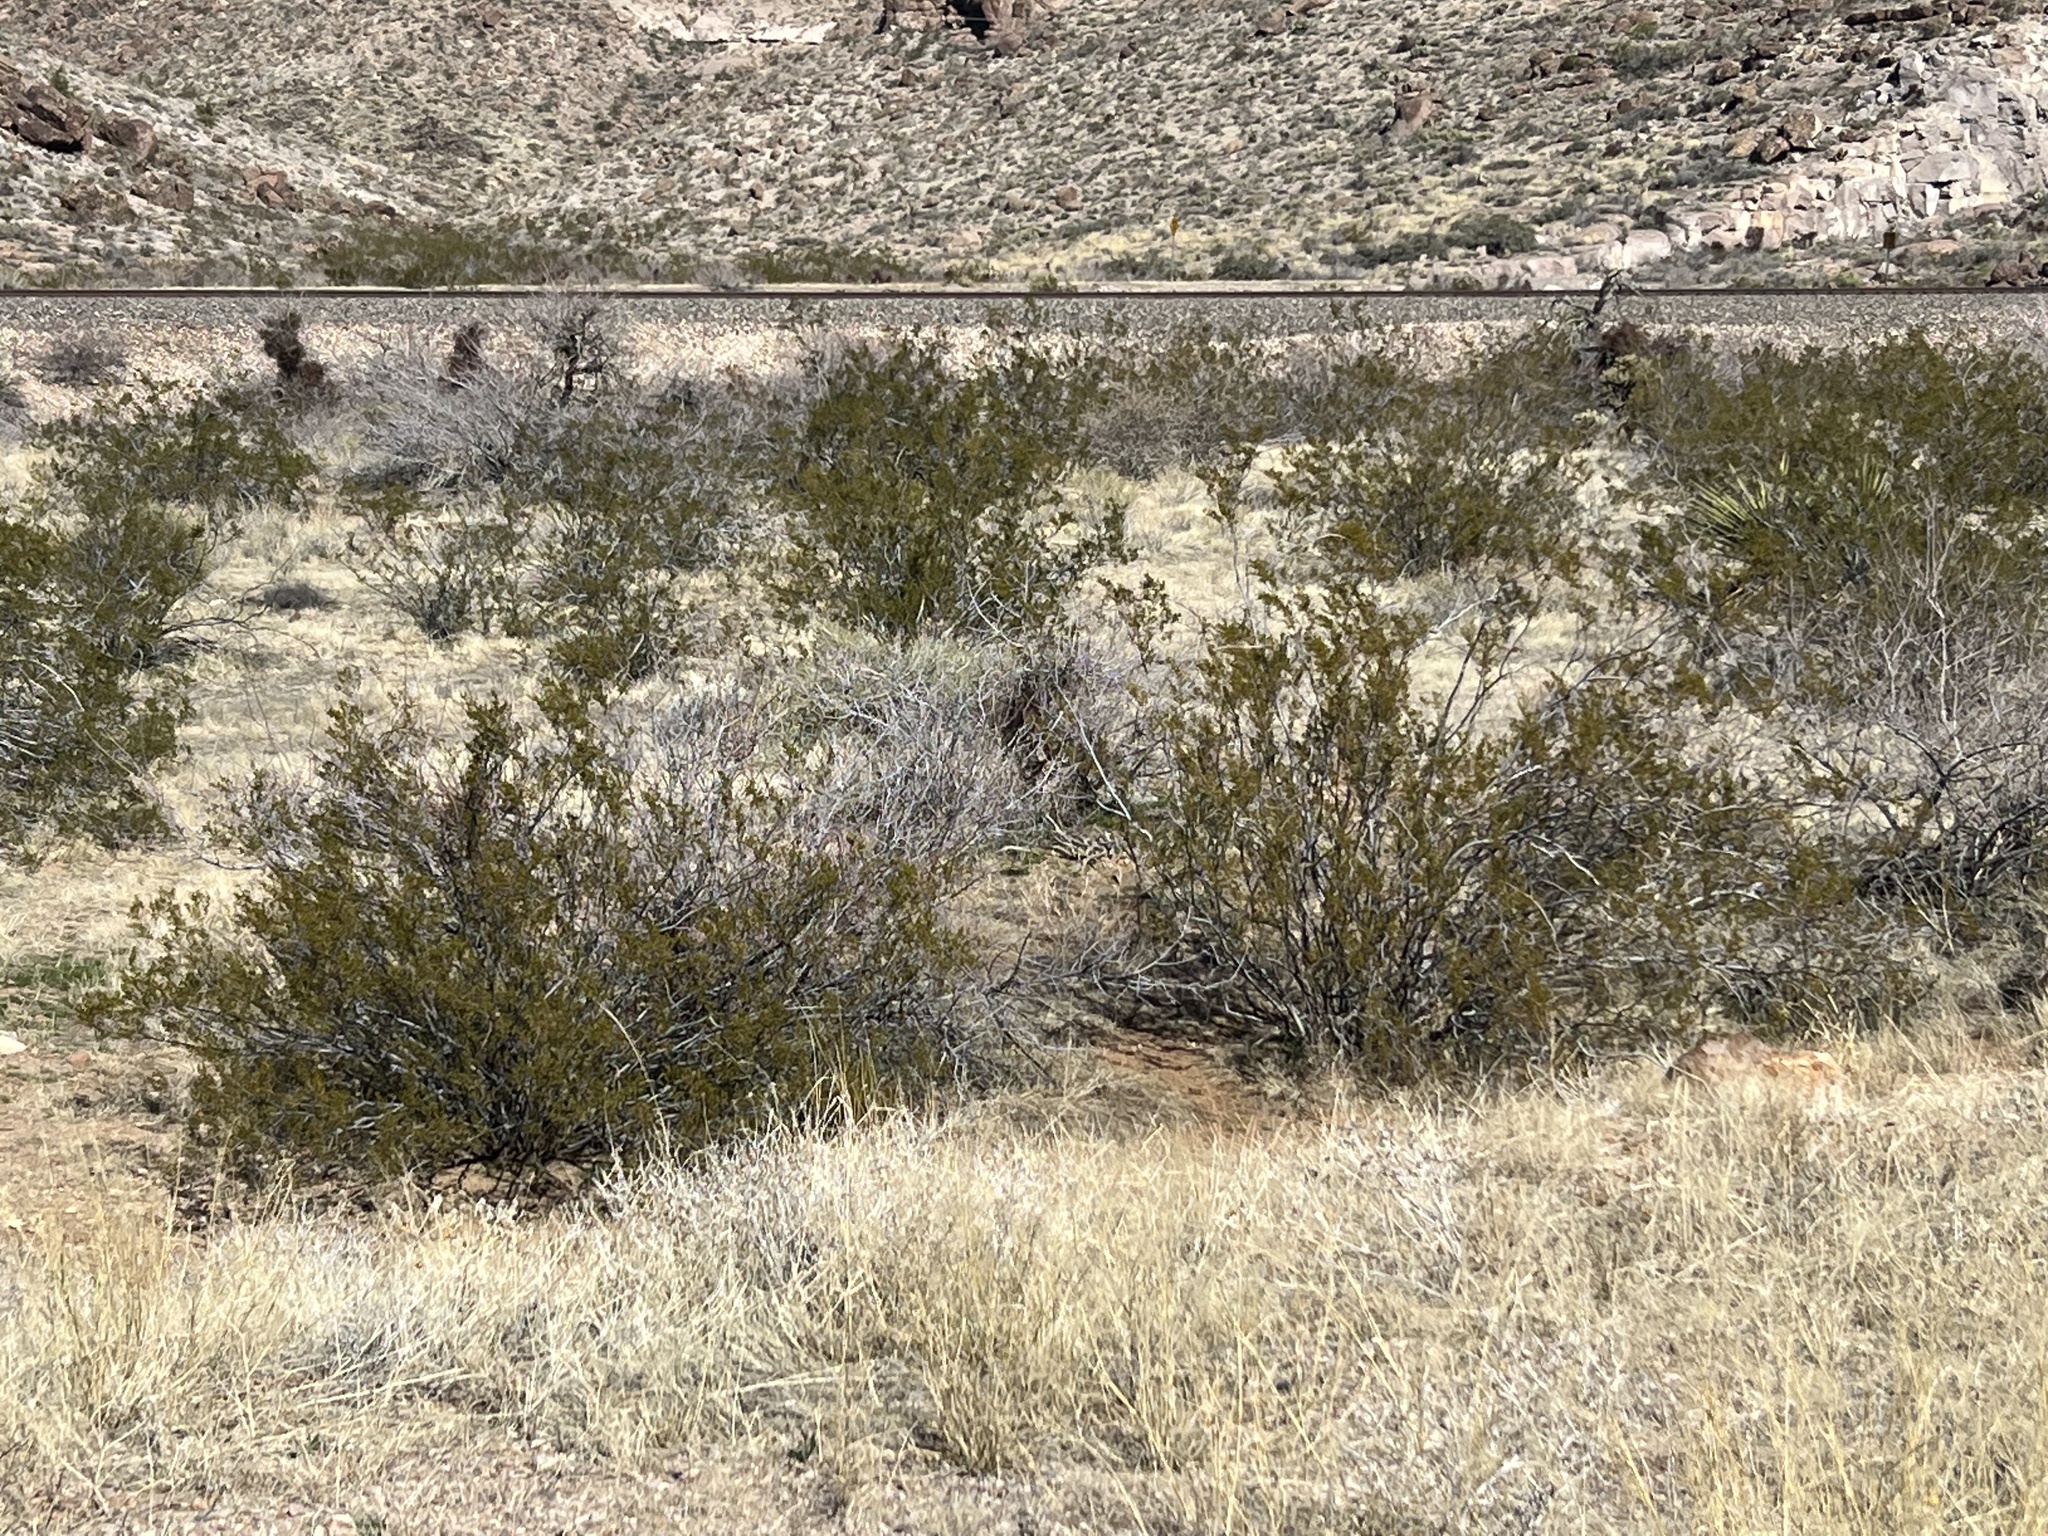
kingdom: Plantae
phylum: Tracheophyta
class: Magnoliopsida
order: Zygophyllales
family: Zygophyllaceae
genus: Larrea
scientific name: Larrea tridentata
